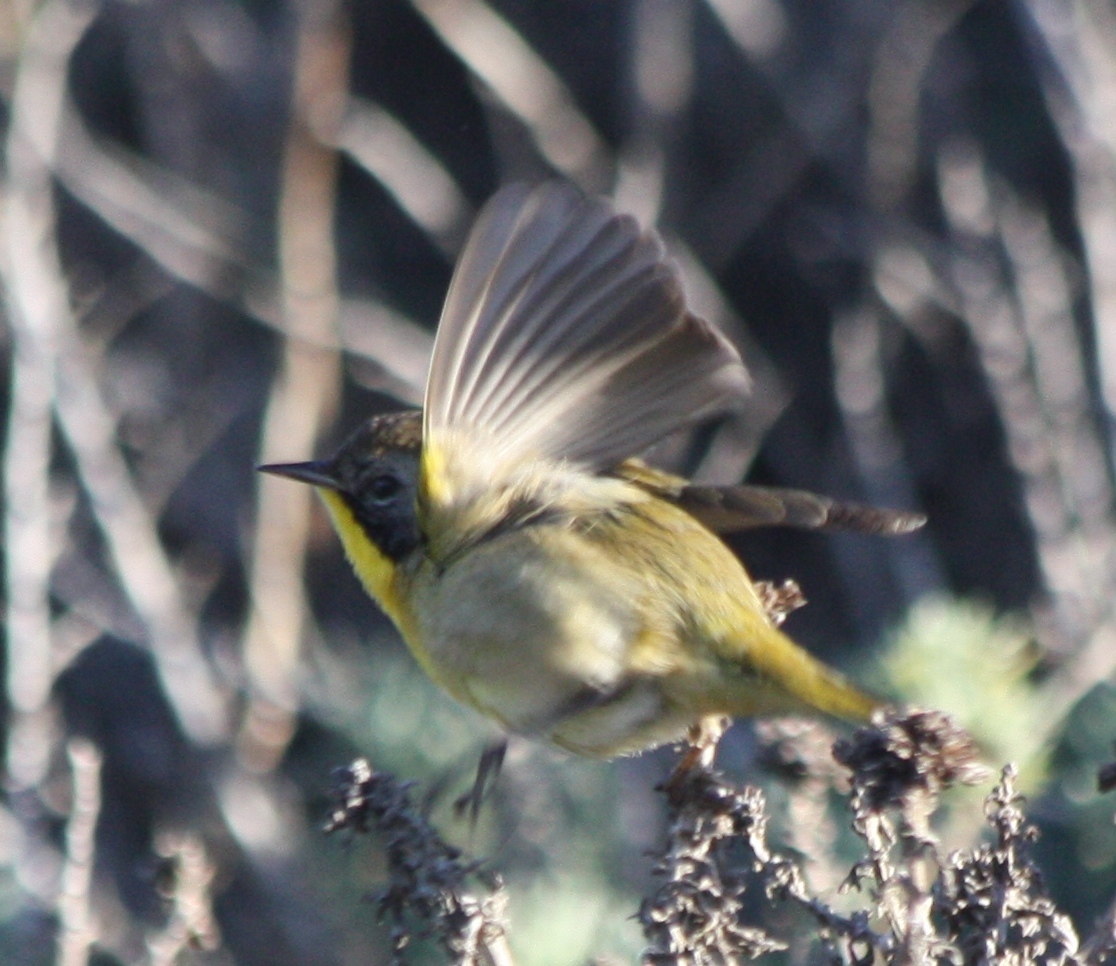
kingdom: Animalia
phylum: Chordata
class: Aves
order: Passeriformes
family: Parulidae
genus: Geothlypis
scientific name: Geothlypis trichas
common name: Common yellowthroat
